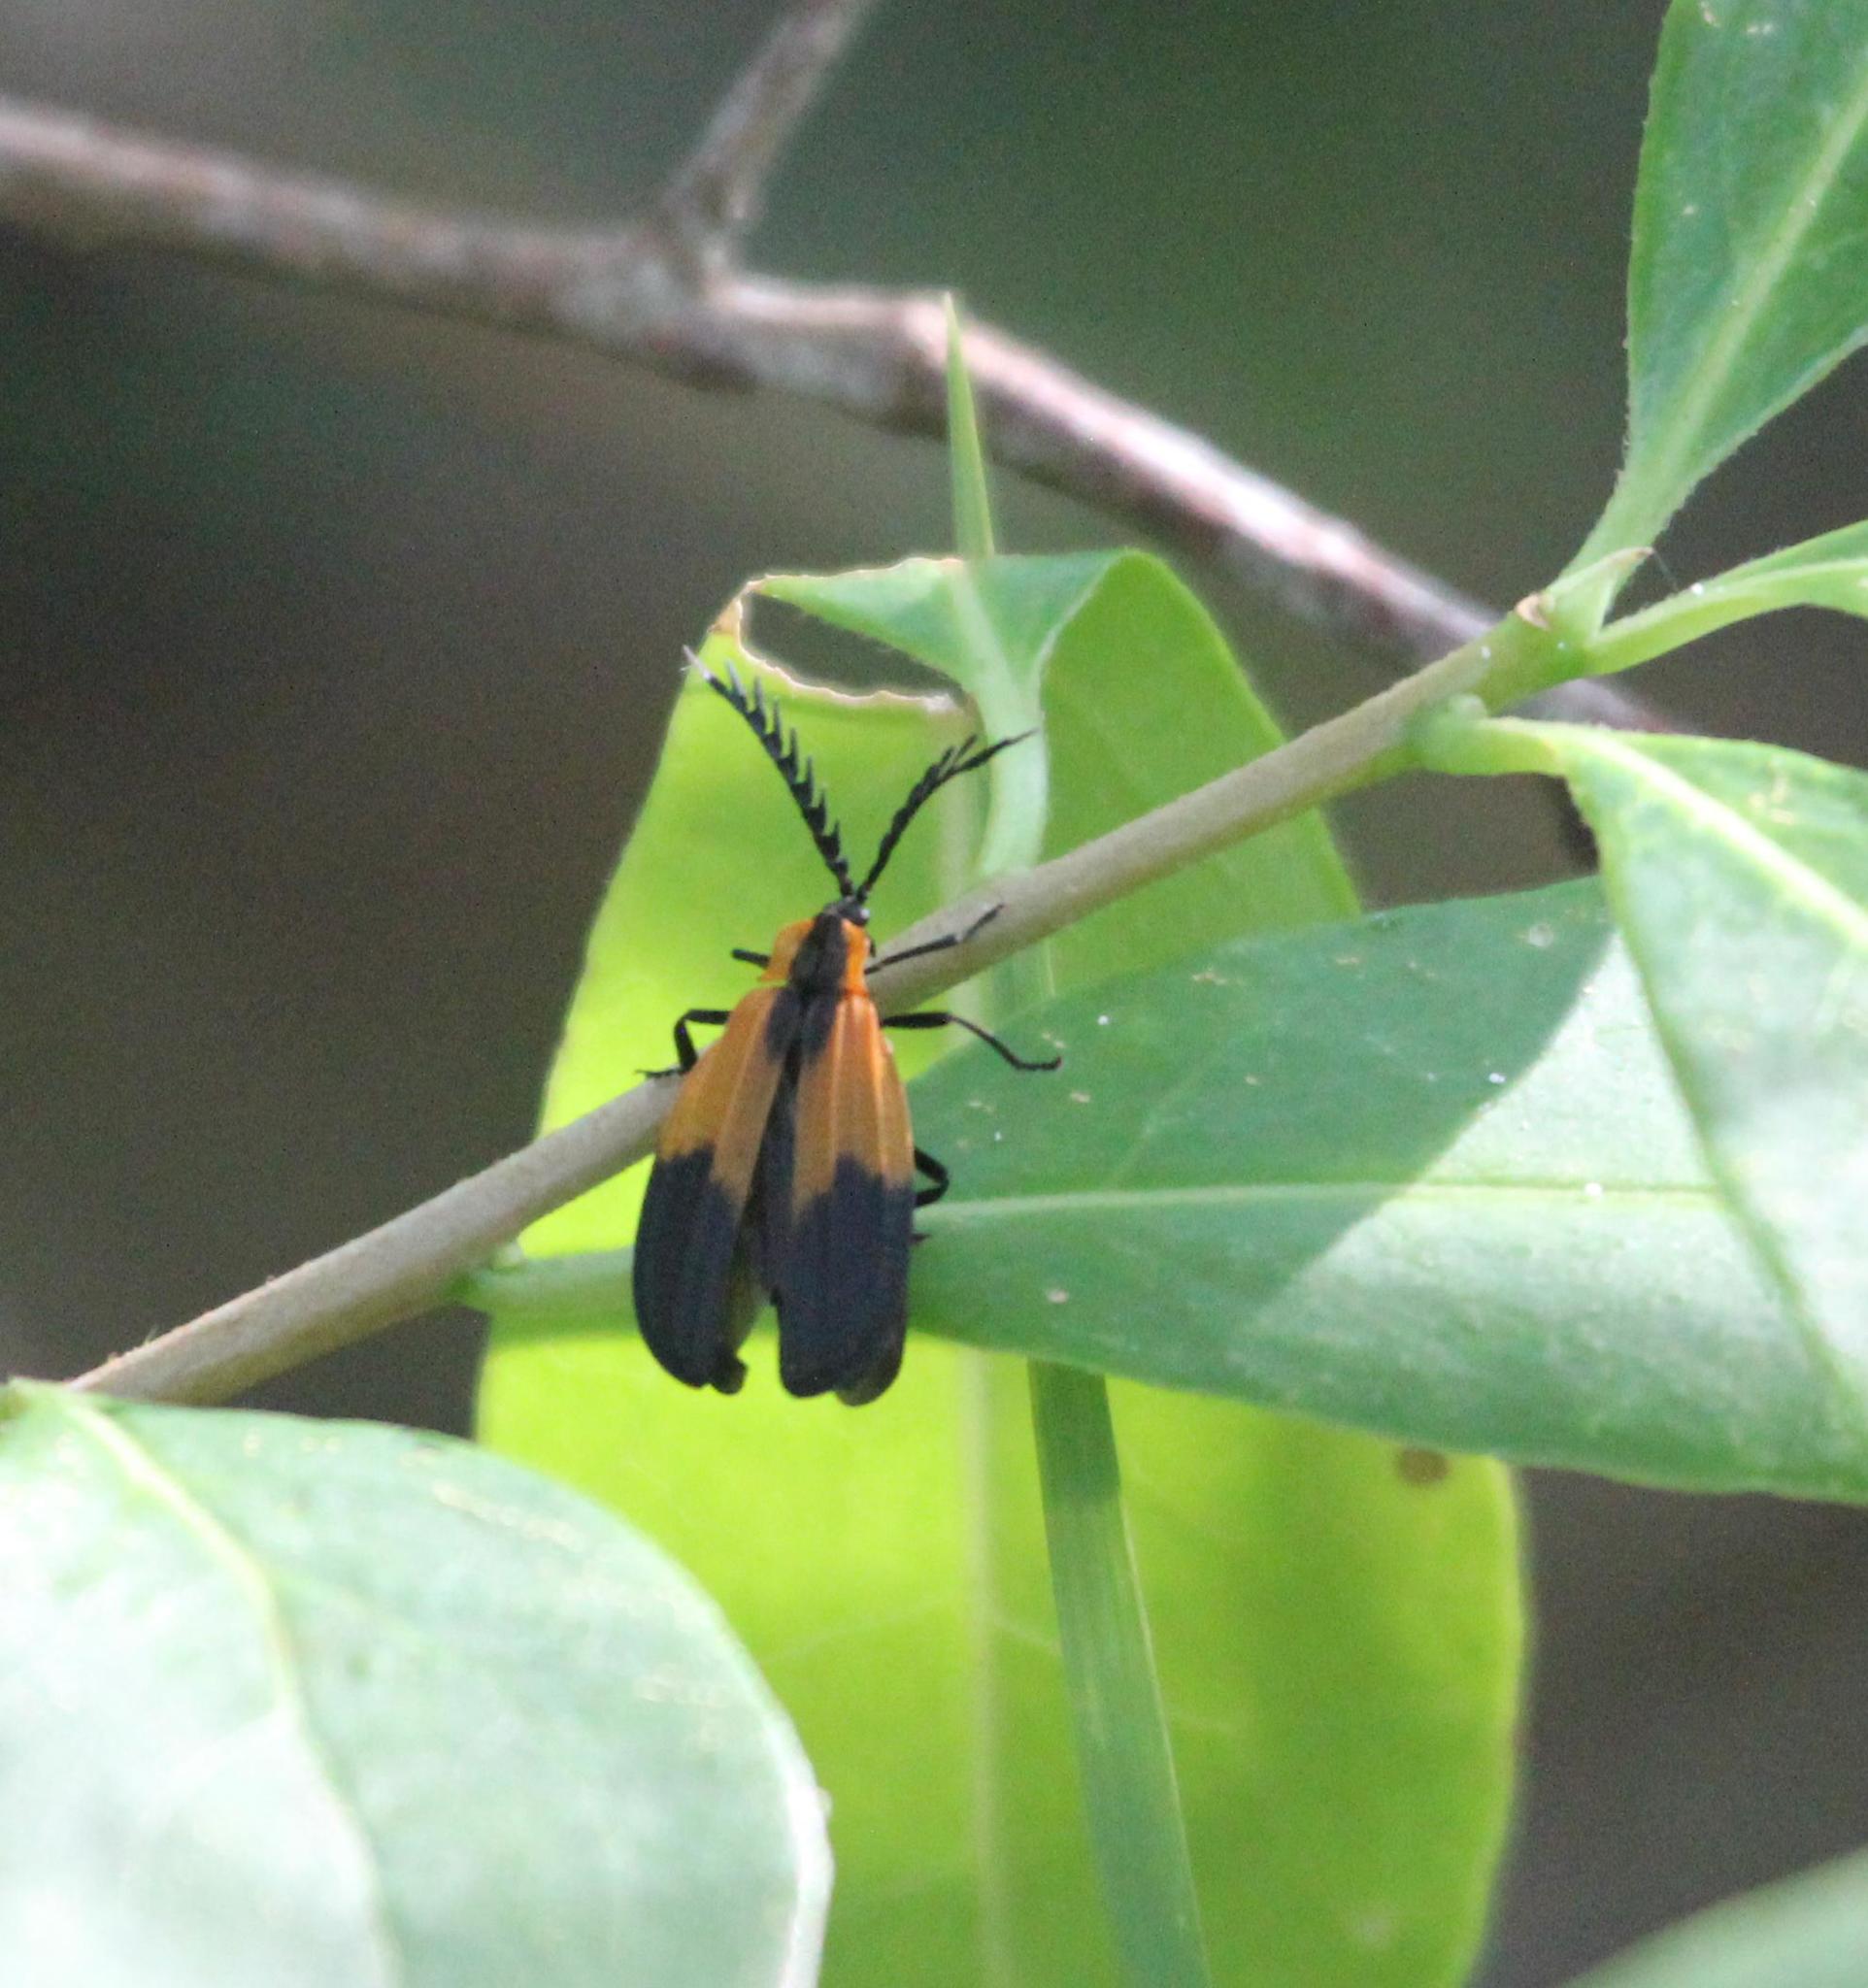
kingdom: Animalia
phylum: Arthropoda
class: Insecta
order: Coleoptera
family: Lycidae
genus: Caenia
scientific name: Caenia dimidiata
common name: Terminal net-winged beetle
